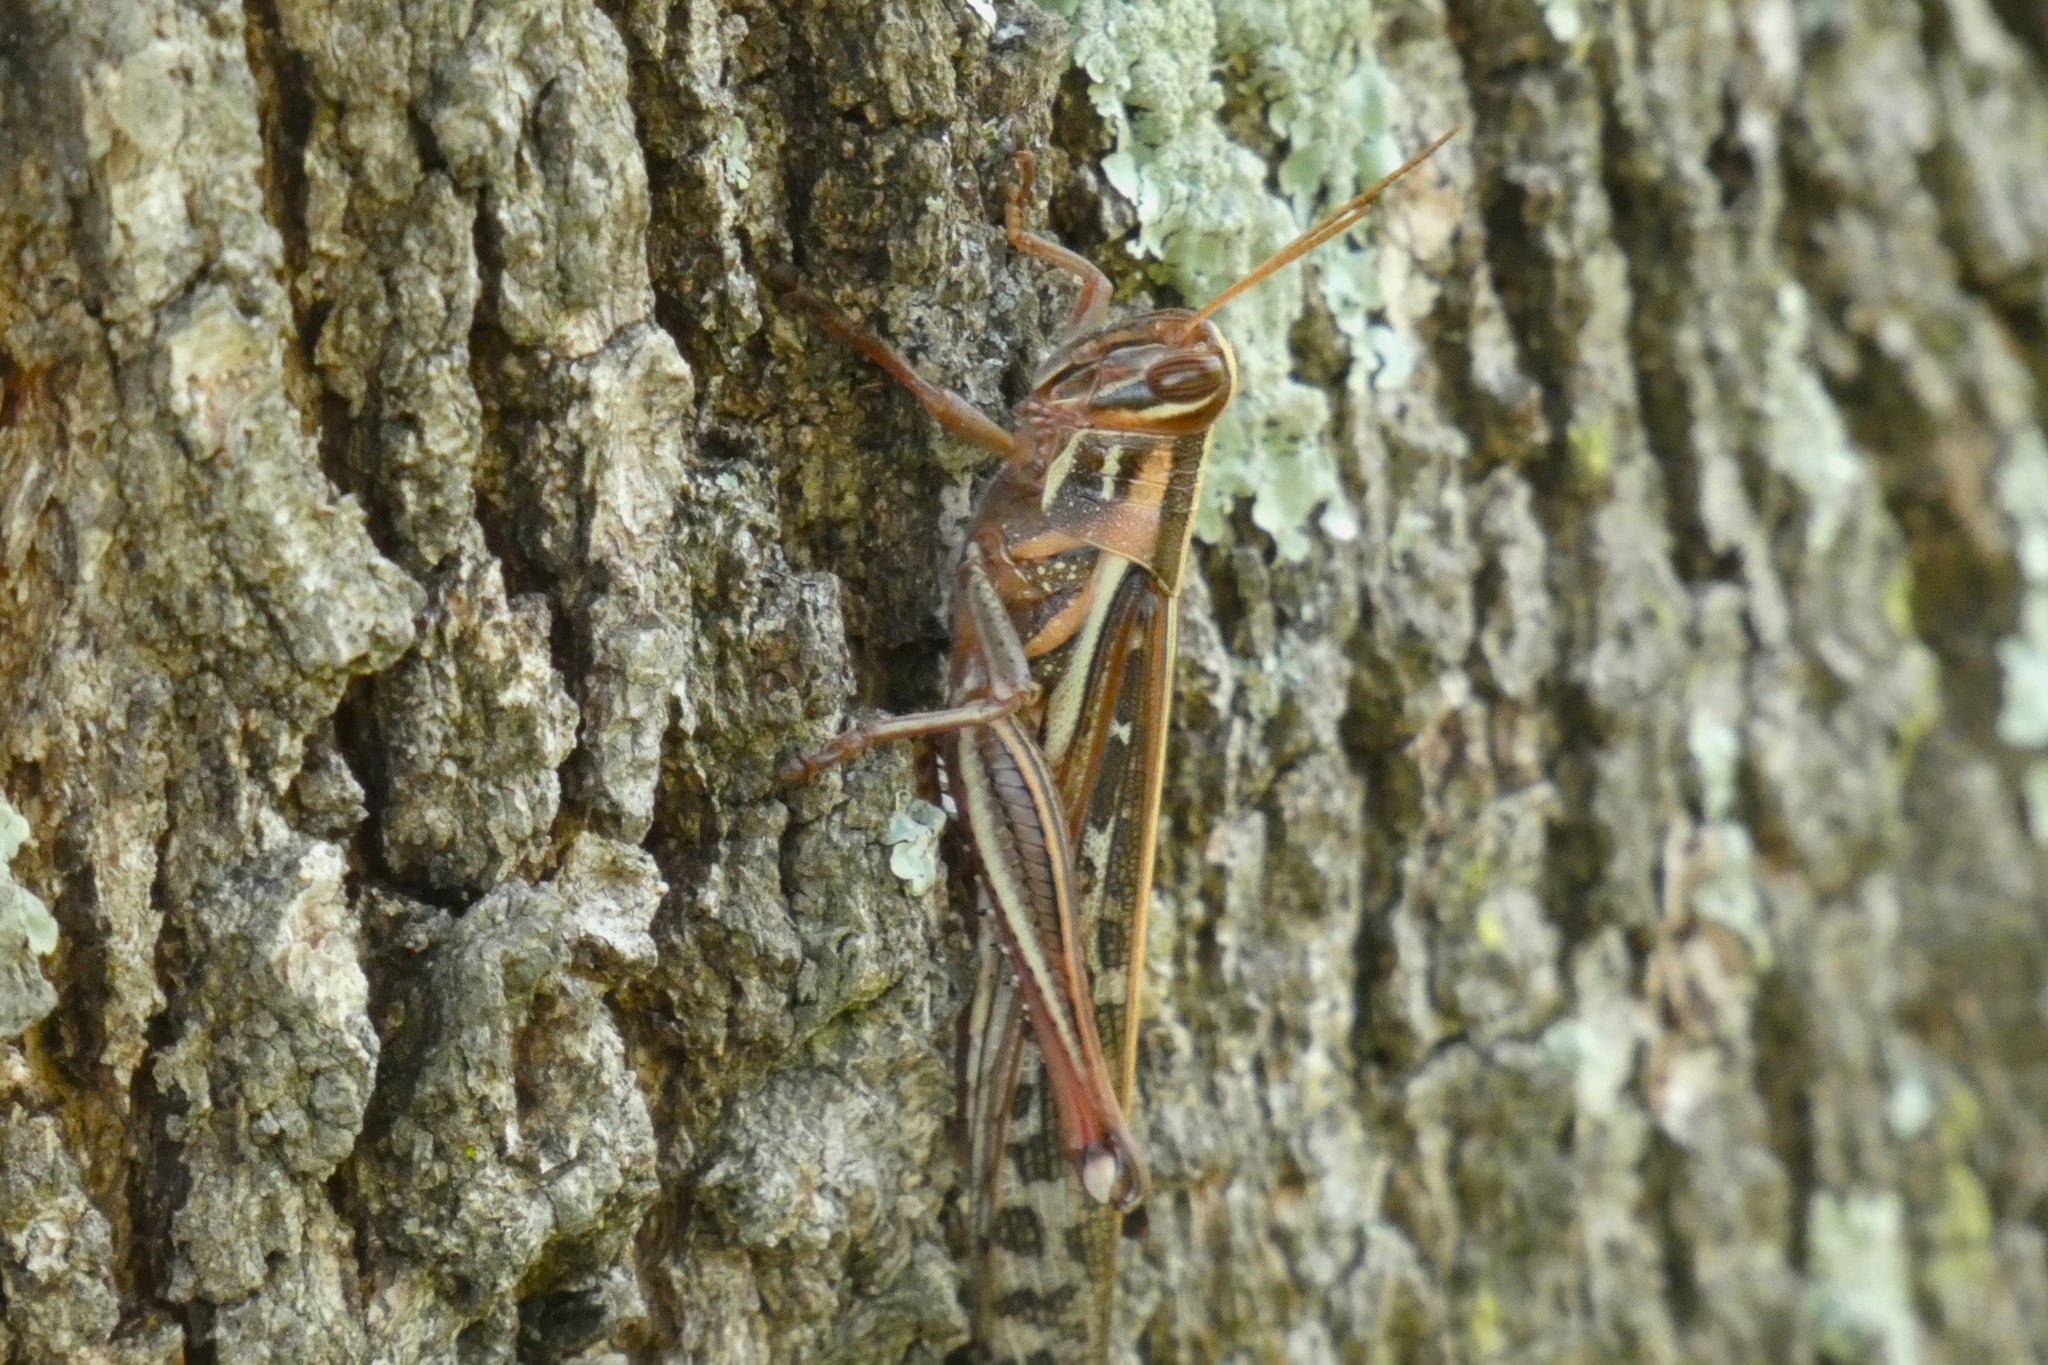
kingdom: Animalia
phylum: Arthropoda
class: Insecta
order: Orthoptera
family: Acrididae
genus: Schistocerca
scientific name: Schistocerca americana
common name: American bird locust
